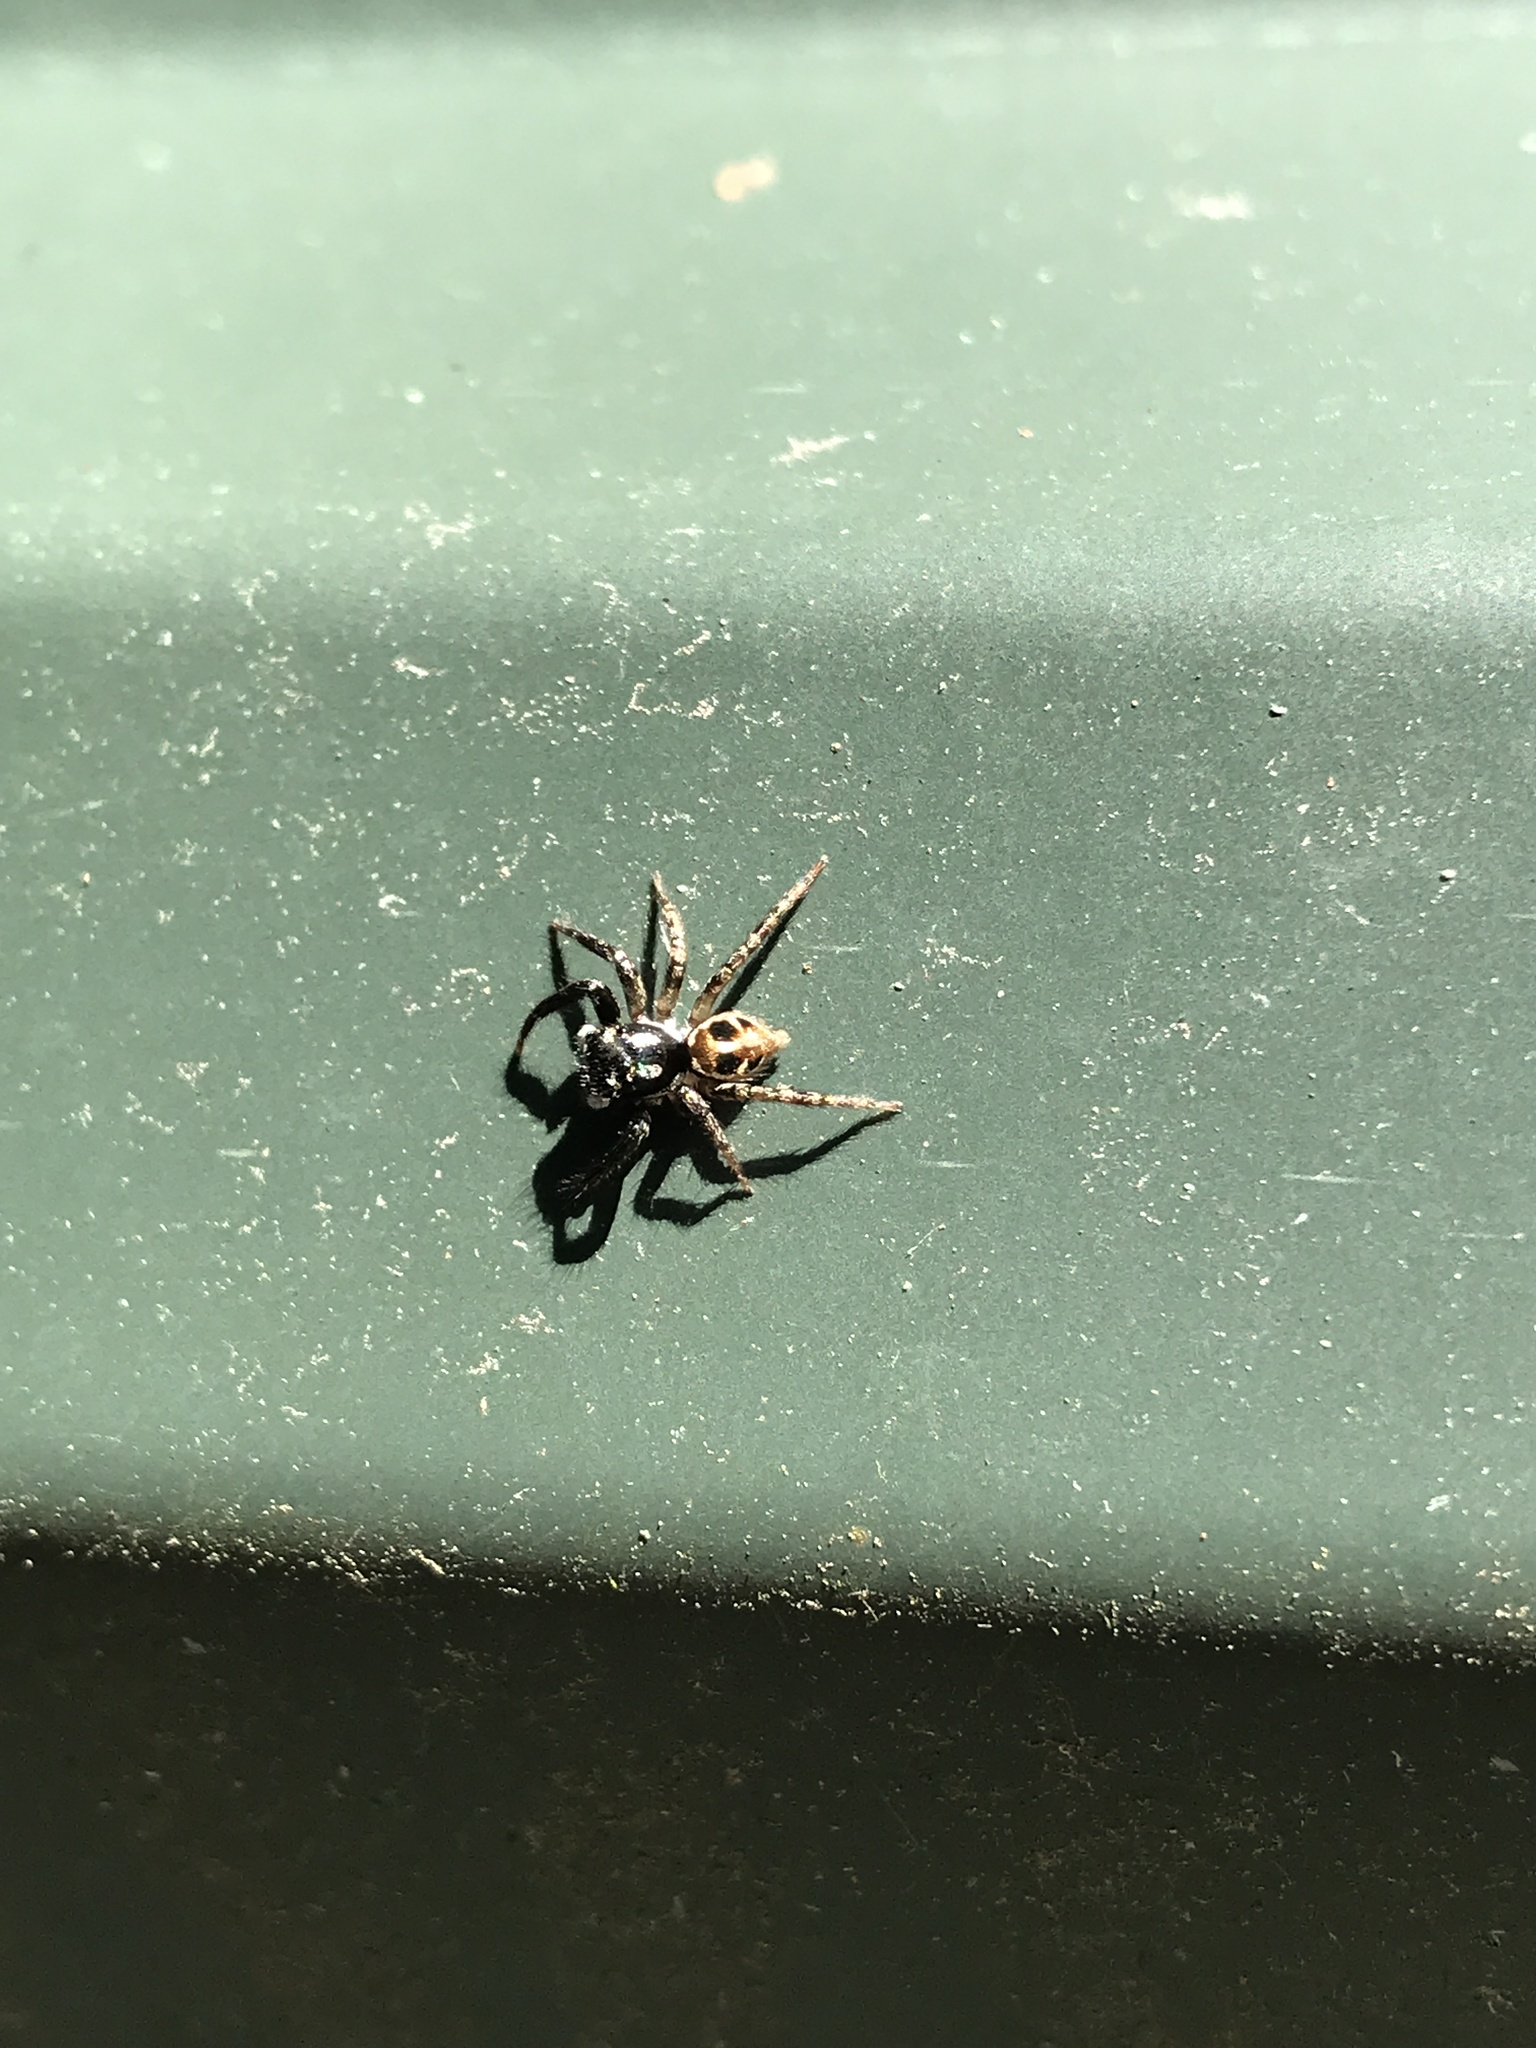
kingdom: Animalia
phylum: Arthropoda
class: Arachnida
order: Araneae
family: Salticidae
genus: Anasaitis
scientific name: Anasaitis canosa
